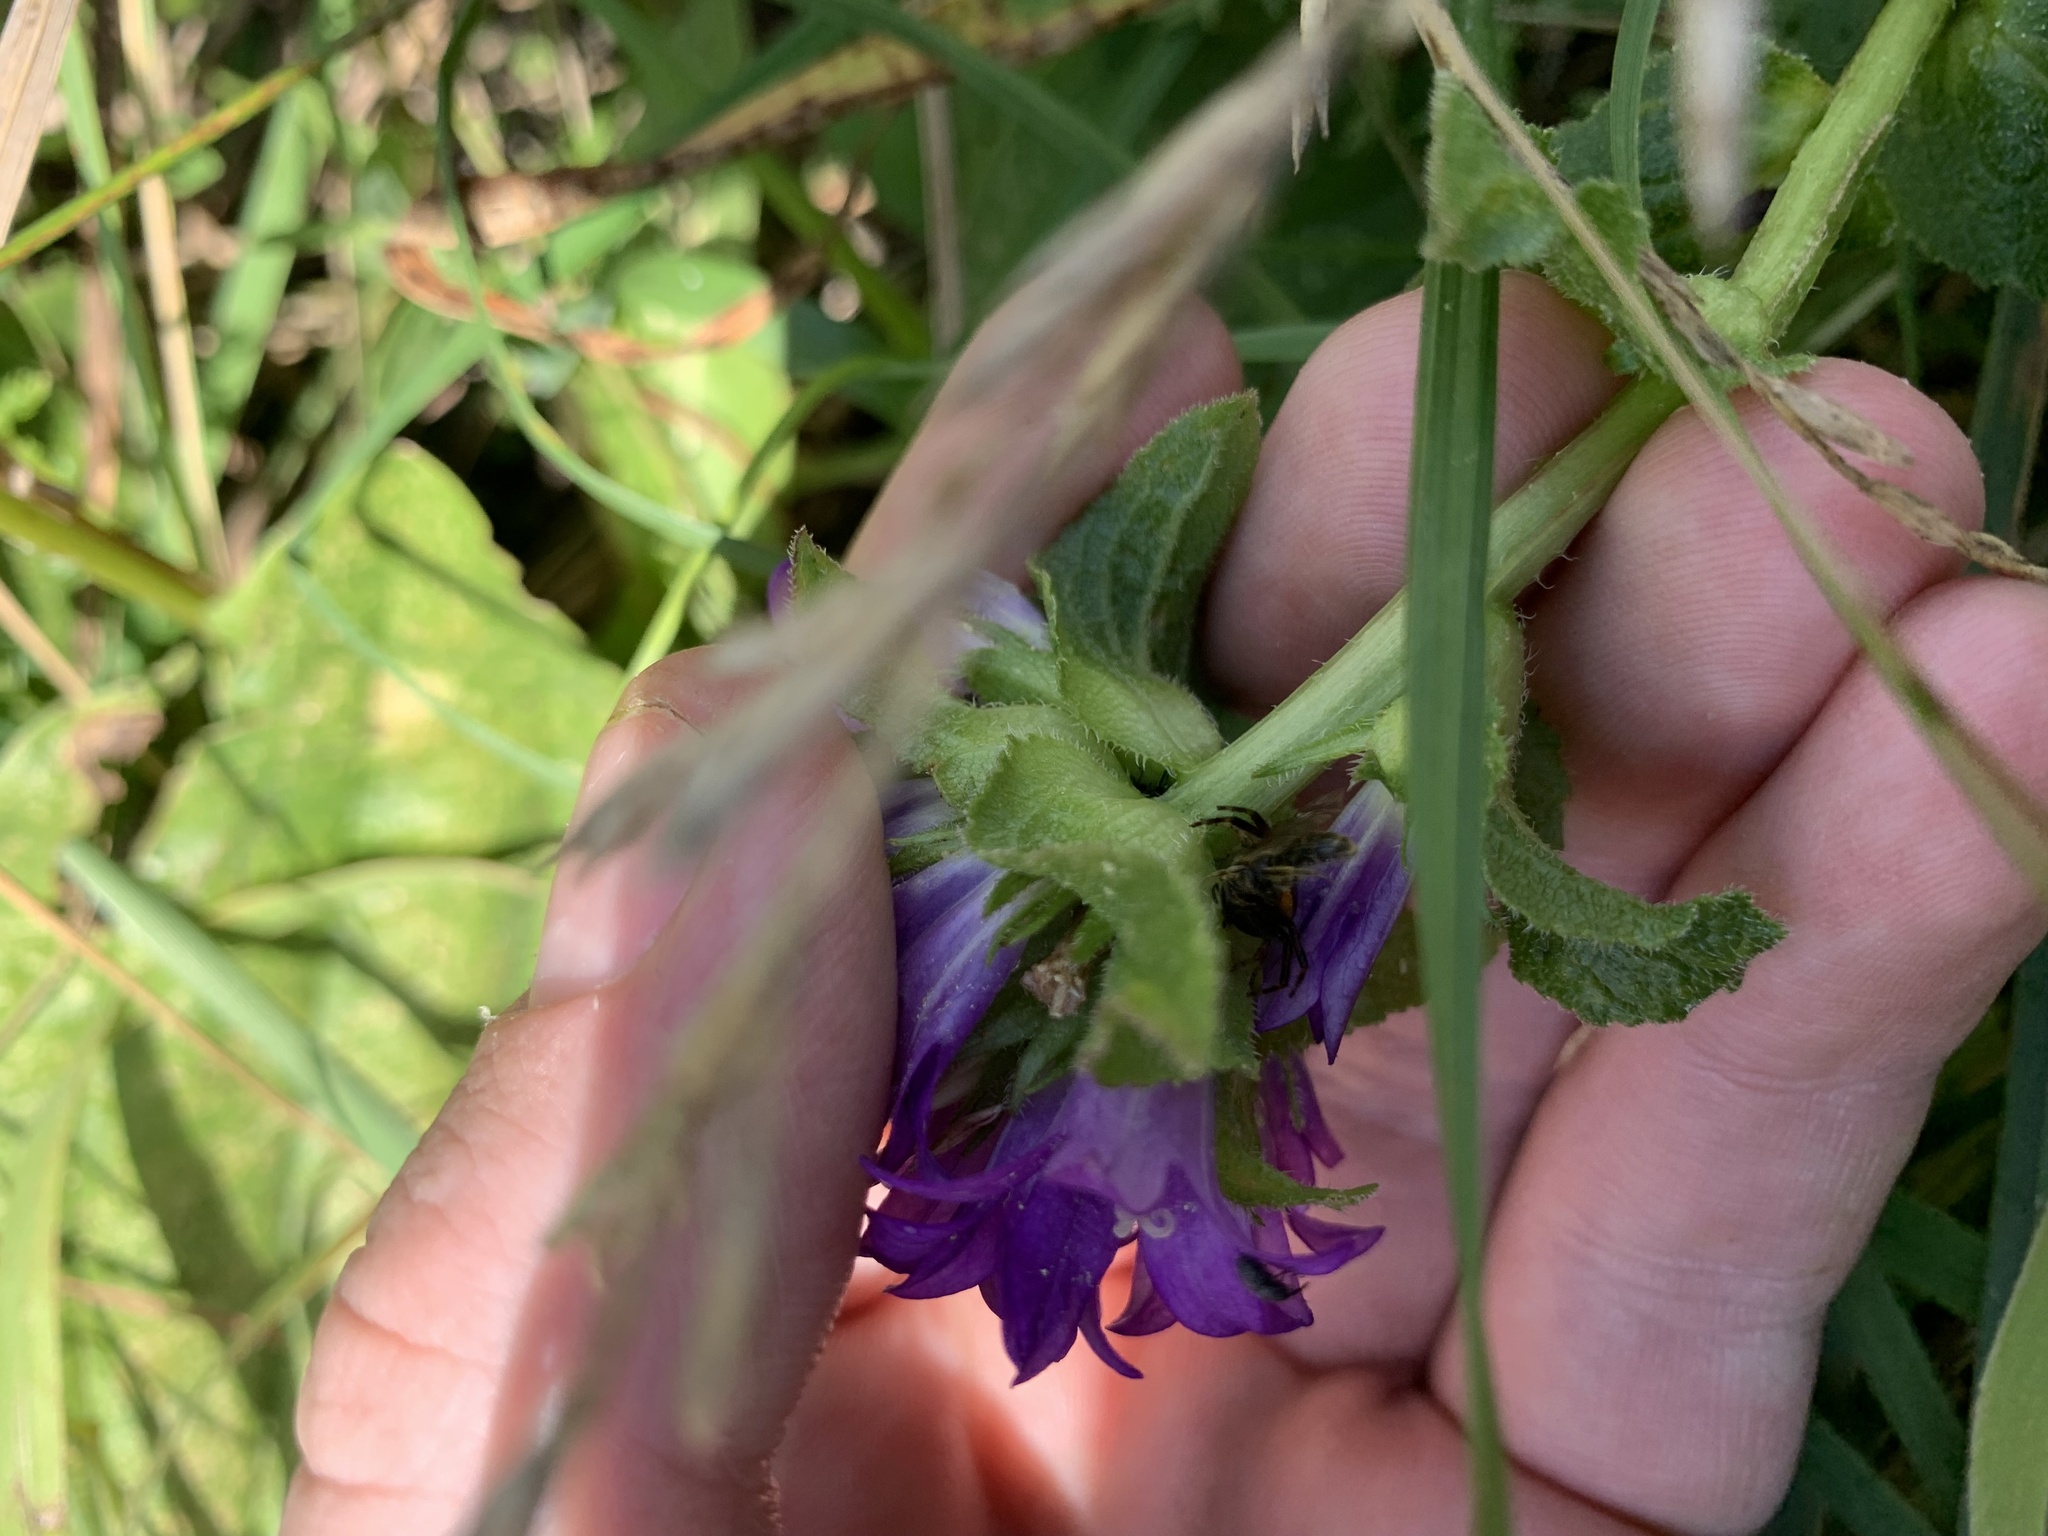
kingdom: Plantae
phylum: Tracheophyta
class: Magnoliopsida
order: Asterales
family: Campanulaceae
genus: Campanula
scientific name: Campanula glomerata
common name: Clustered bellflower
